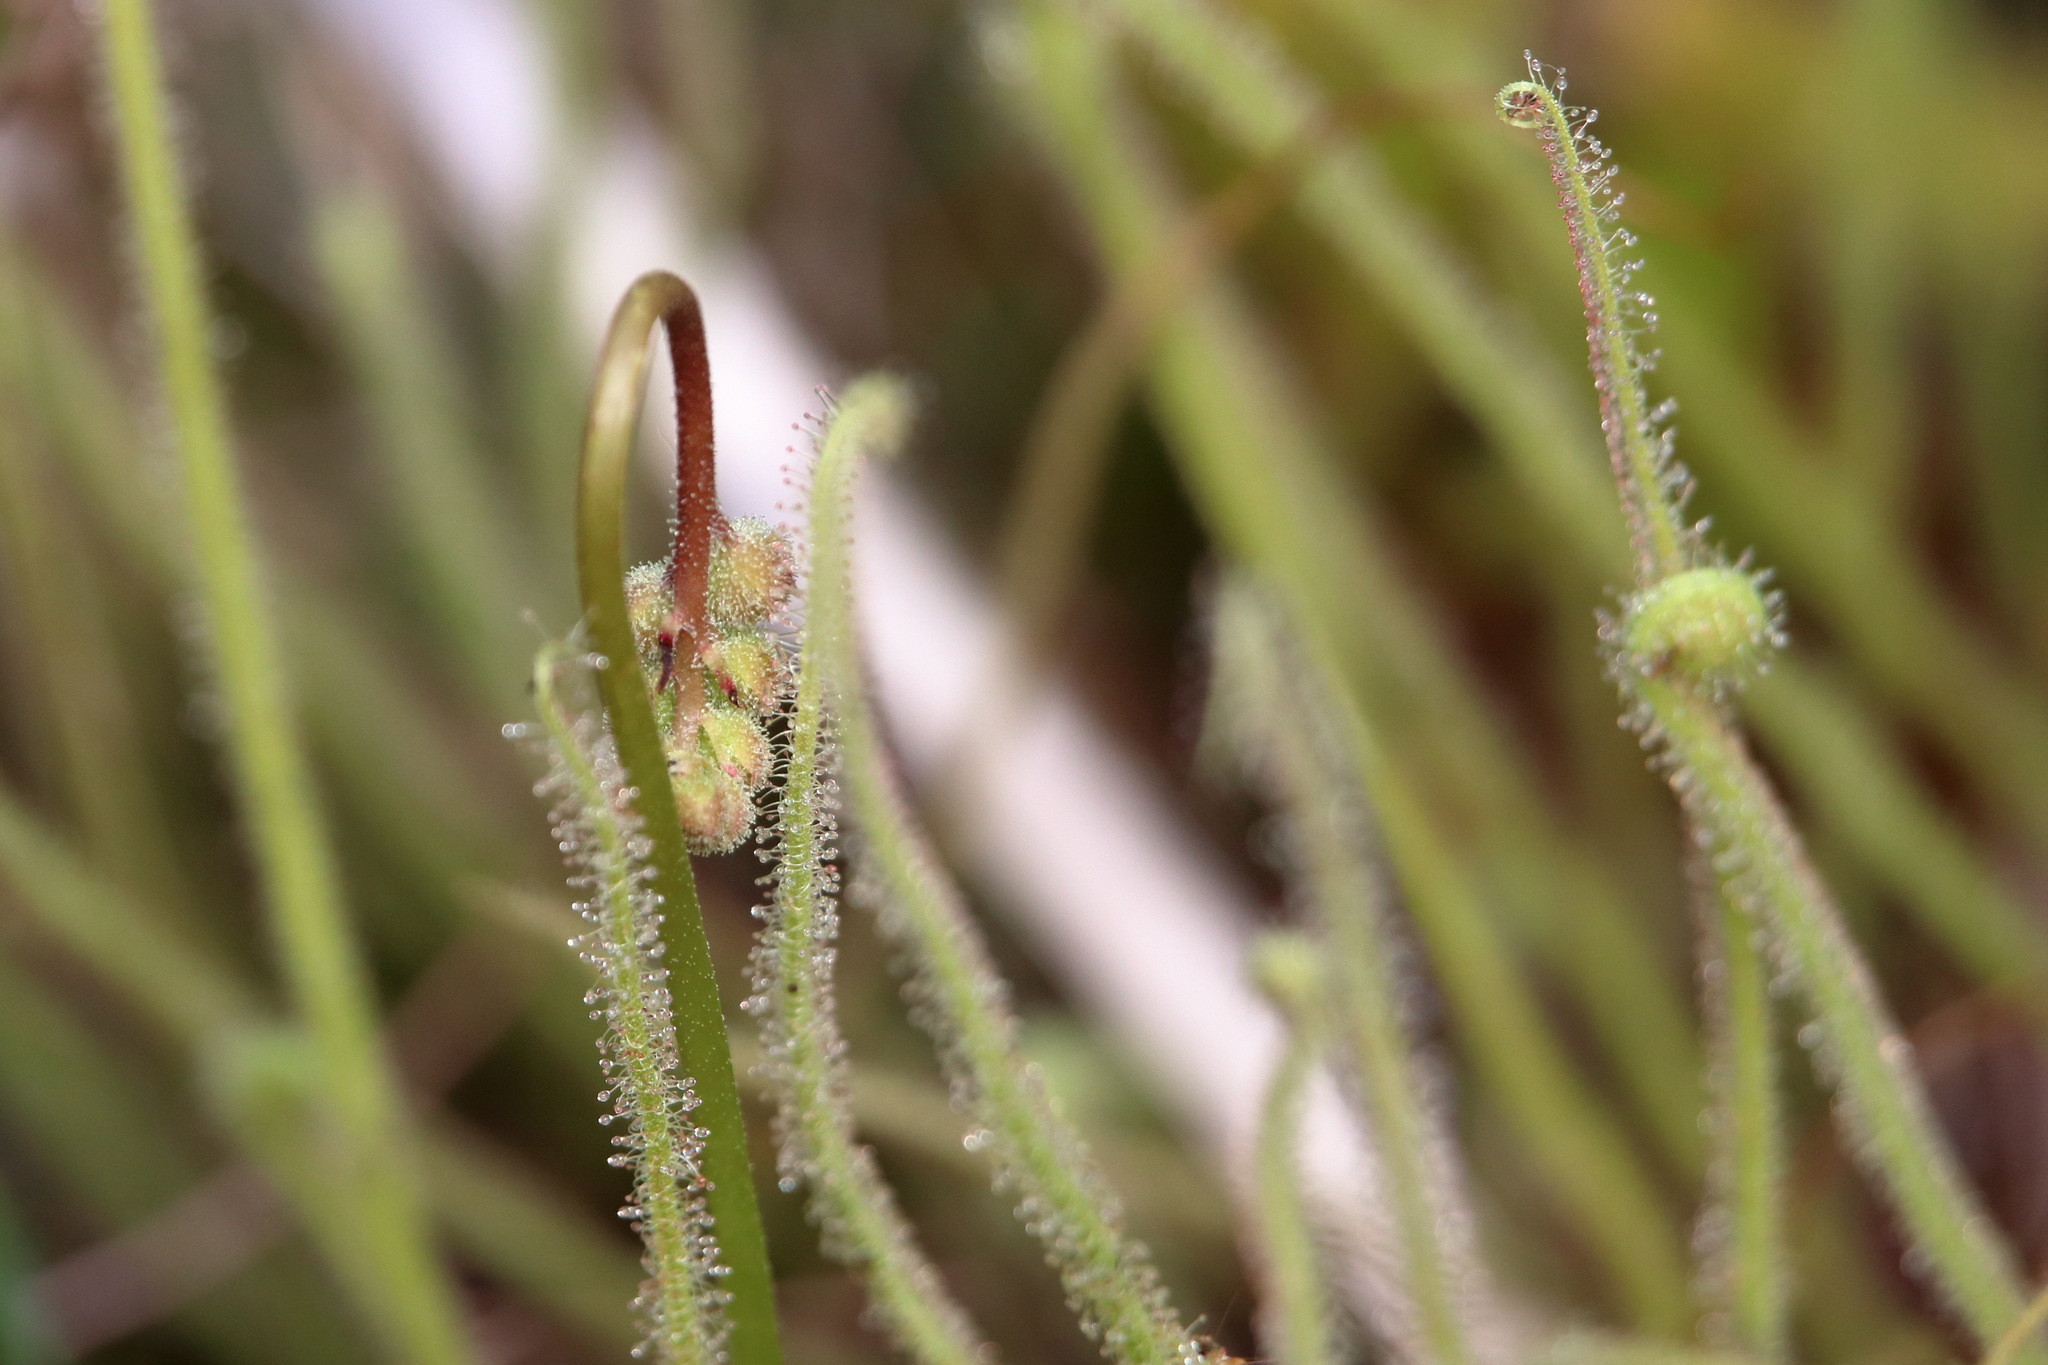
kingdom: Plantae
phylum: Tracheophyta
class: Magnoliopsida
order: Caryophyllales
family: Droseraceae
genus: Drosera
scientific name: Drosera filiformis
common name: Dew-thread
